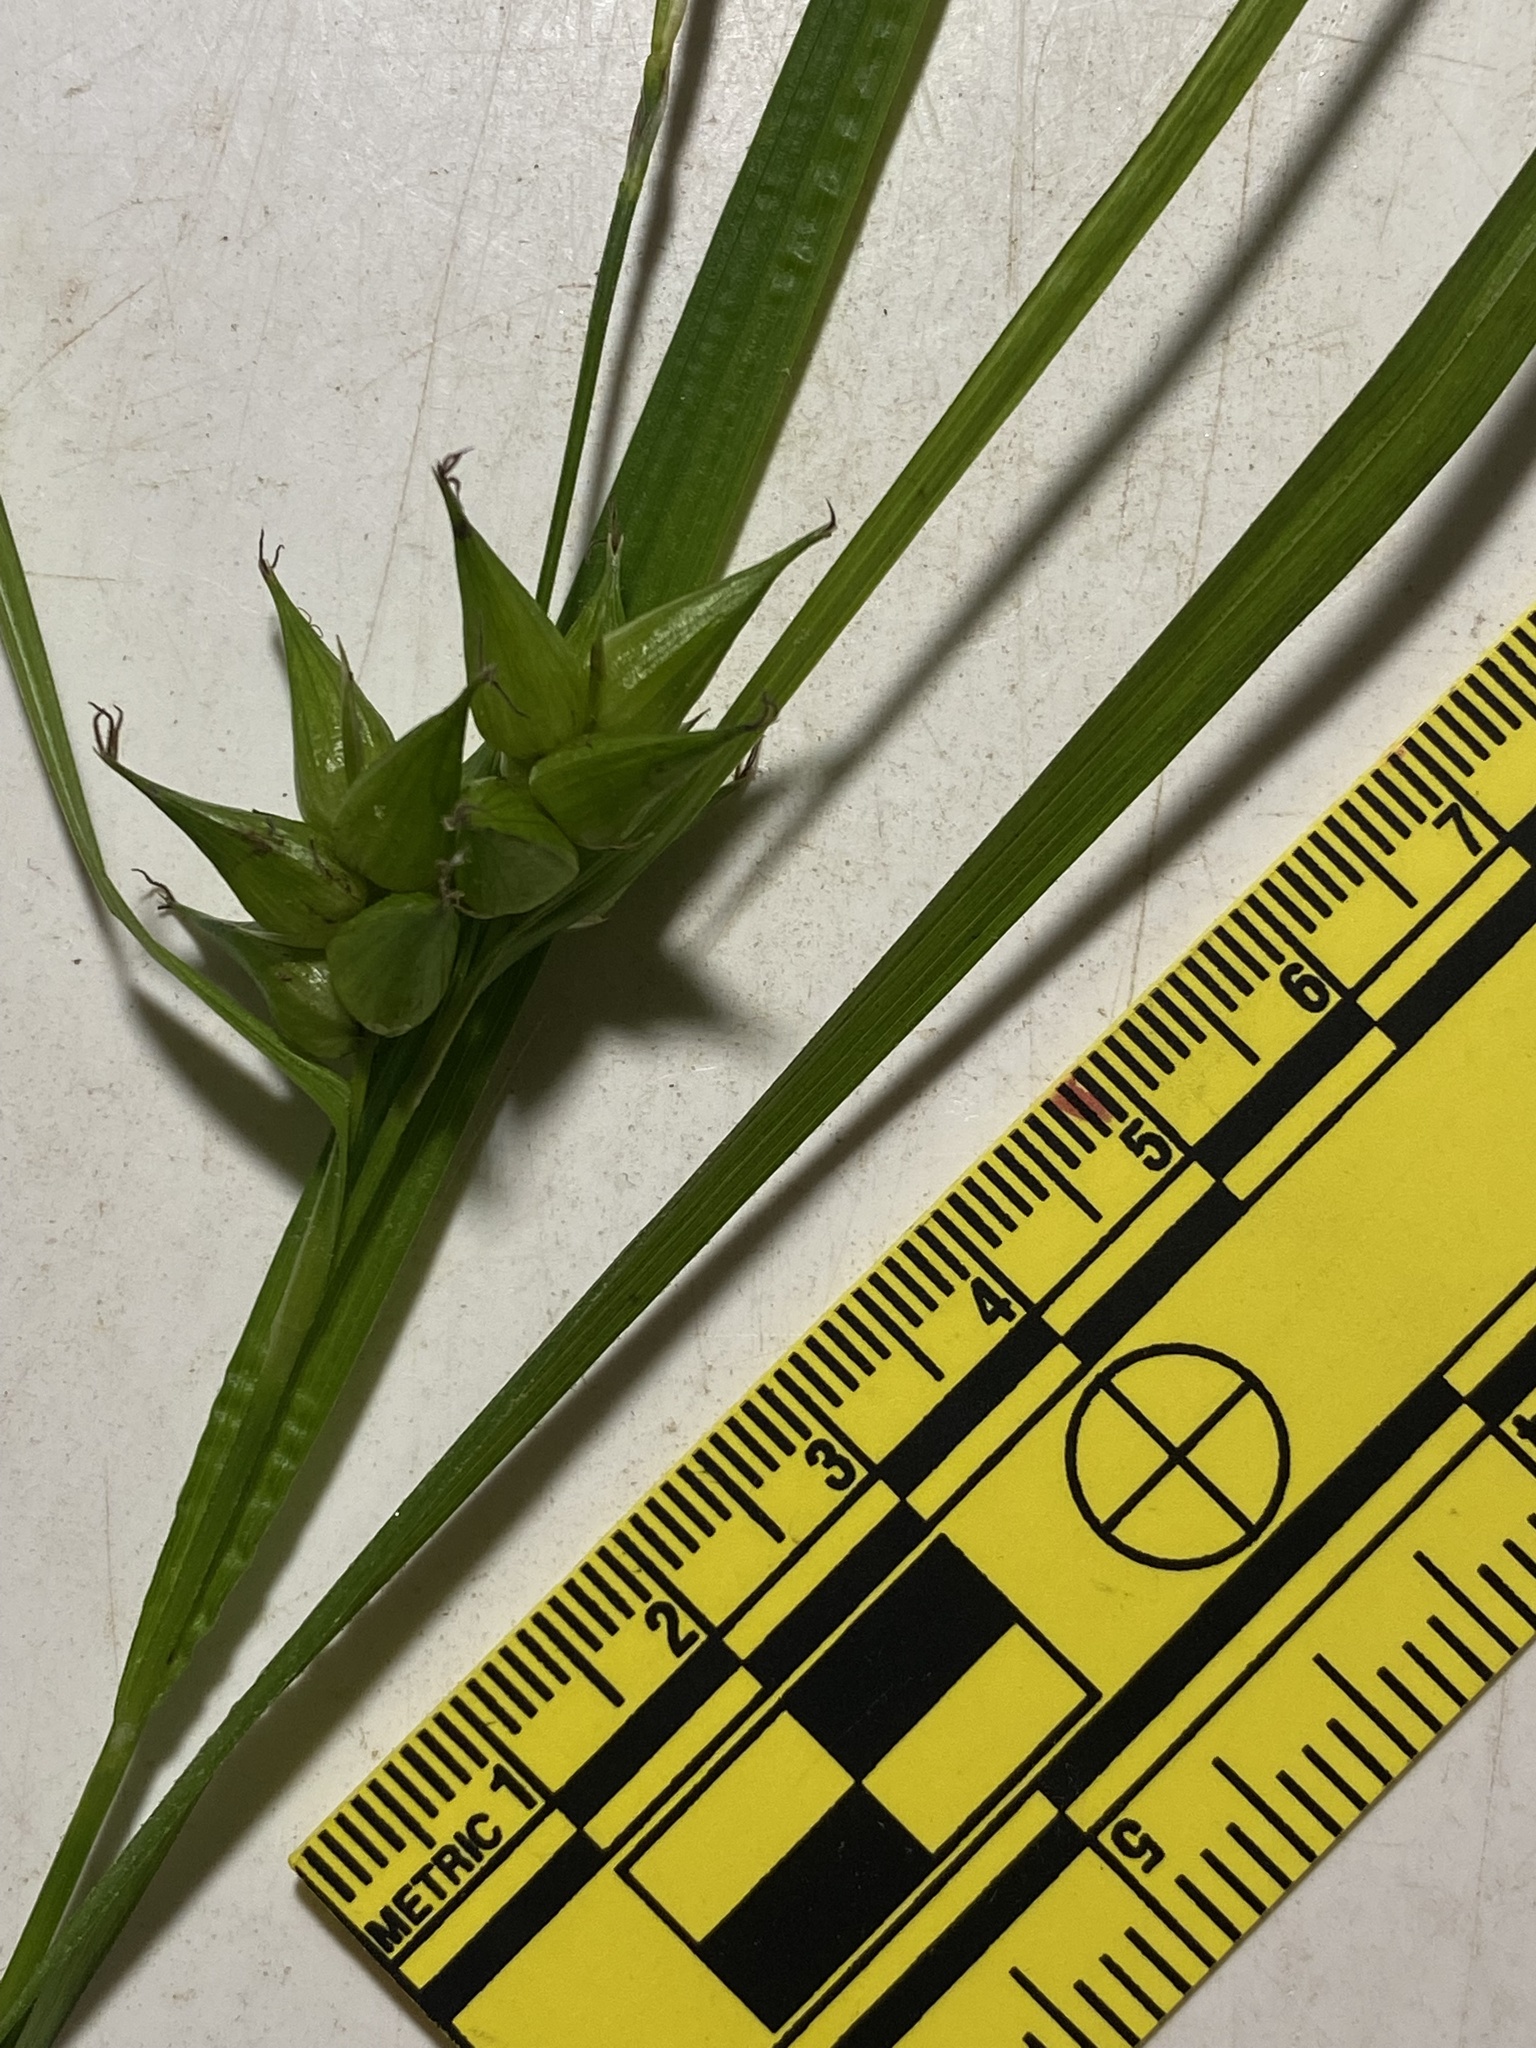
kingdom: Plantae
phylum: Tracheophyta
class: Liliopsida
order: Poales
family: Cyperaceae
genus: Carex
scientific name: Carex intumescens
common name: Greater bladder sedge
